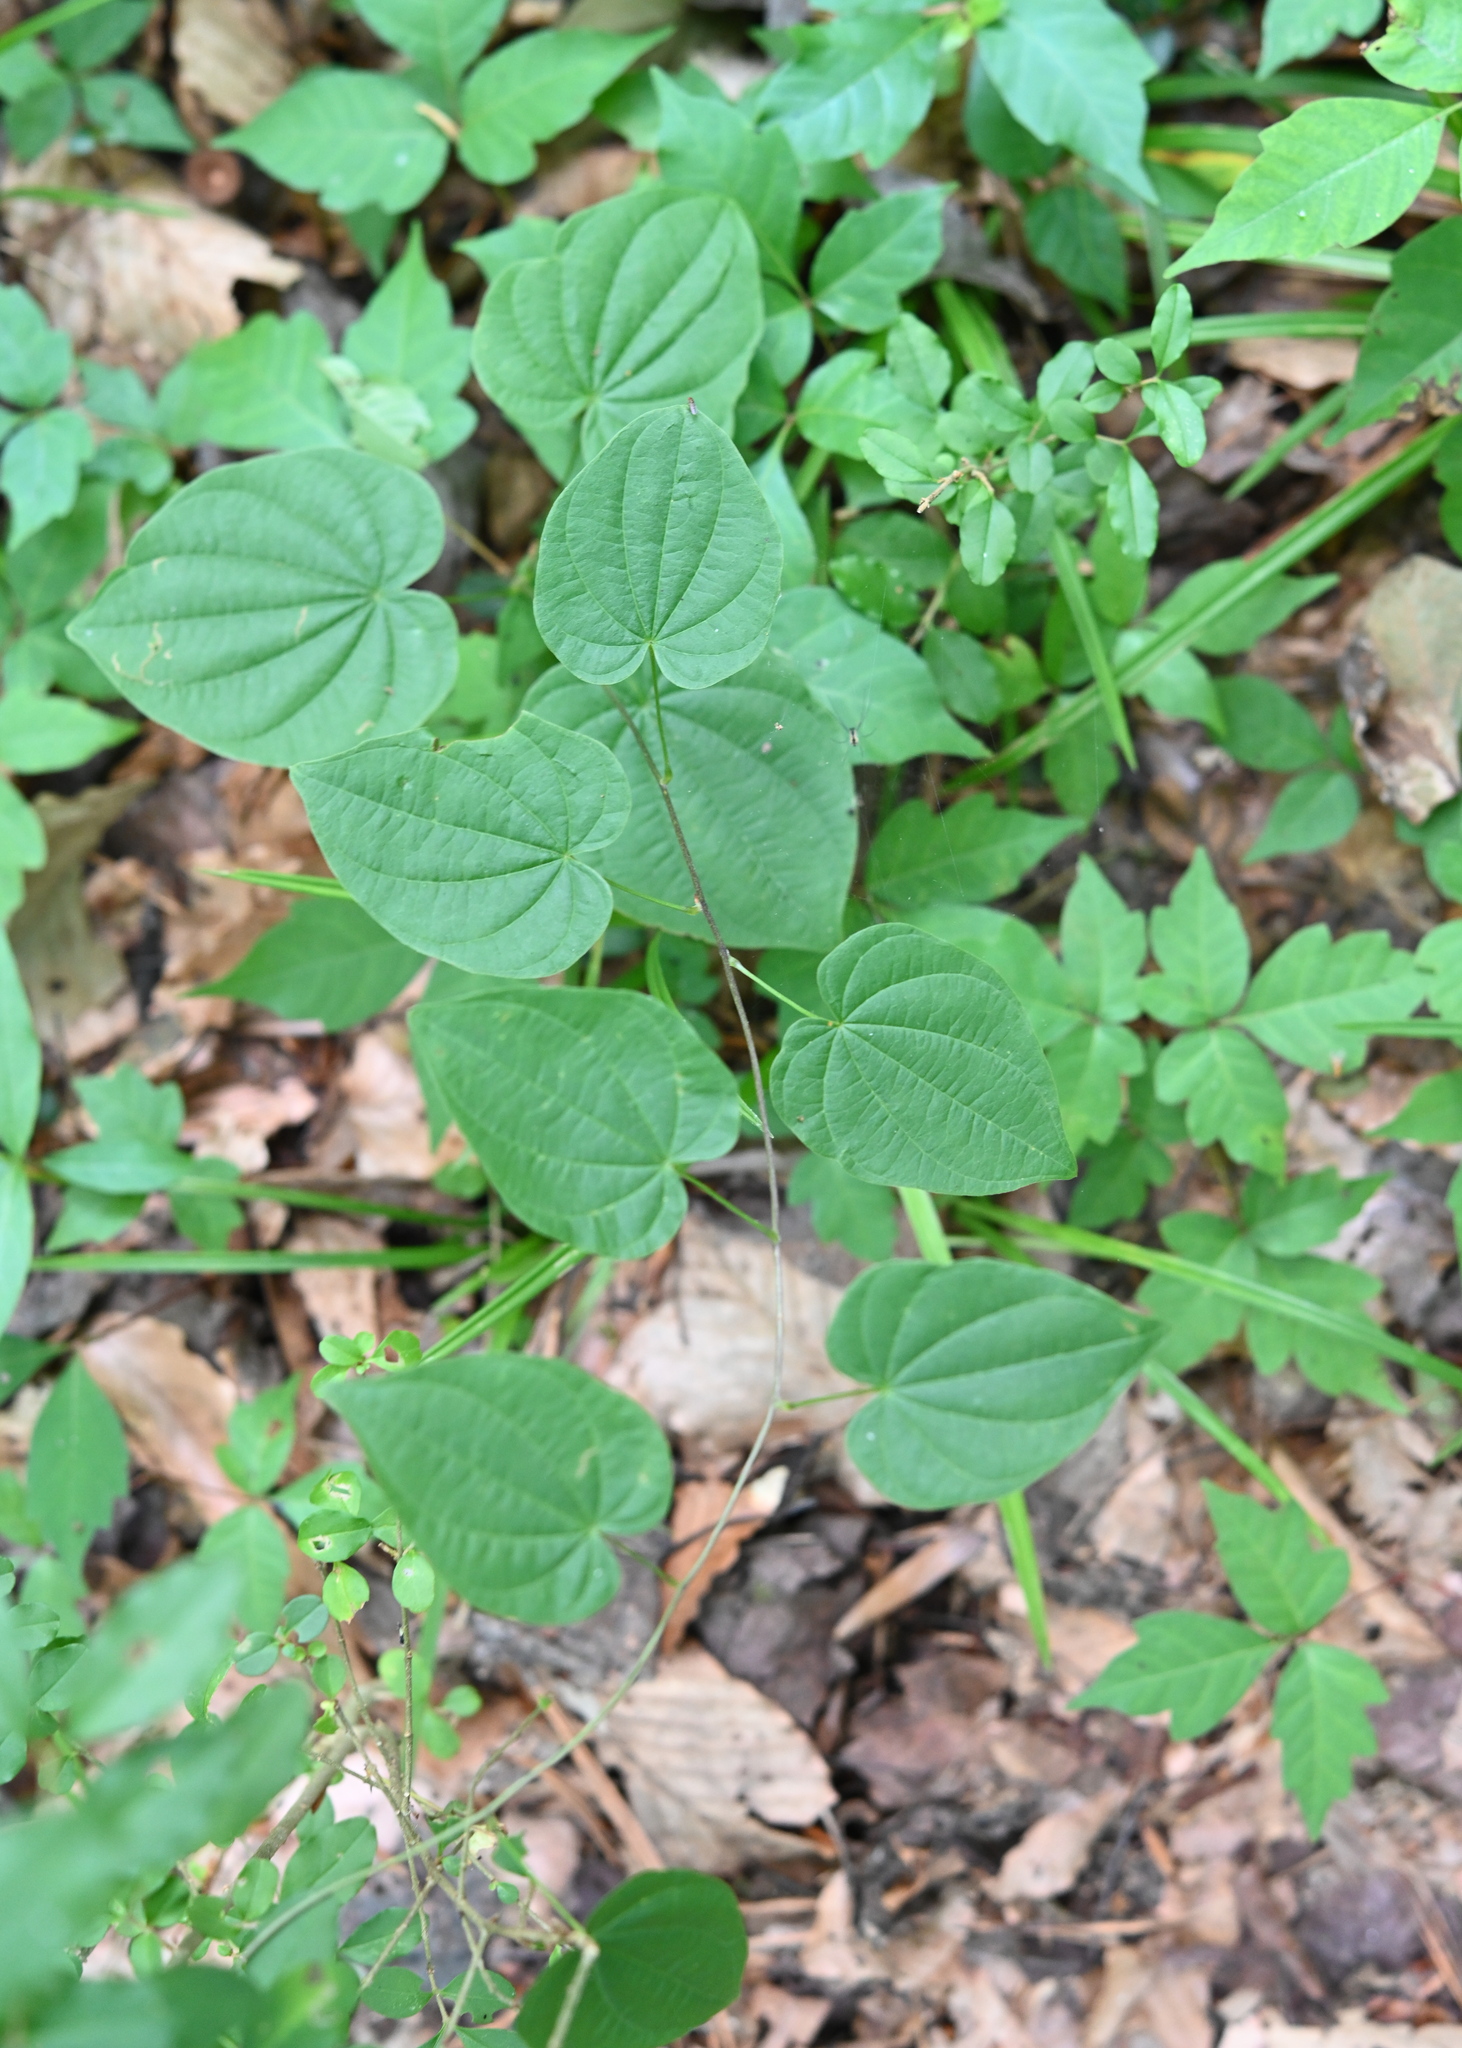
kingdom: Plantae
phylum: Tracheophyta
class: Liliopsida
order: Dioscoreales
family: Dioscoreaceae
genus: Dioscorea
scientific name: Dioscorea villosa
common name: Wild yam
